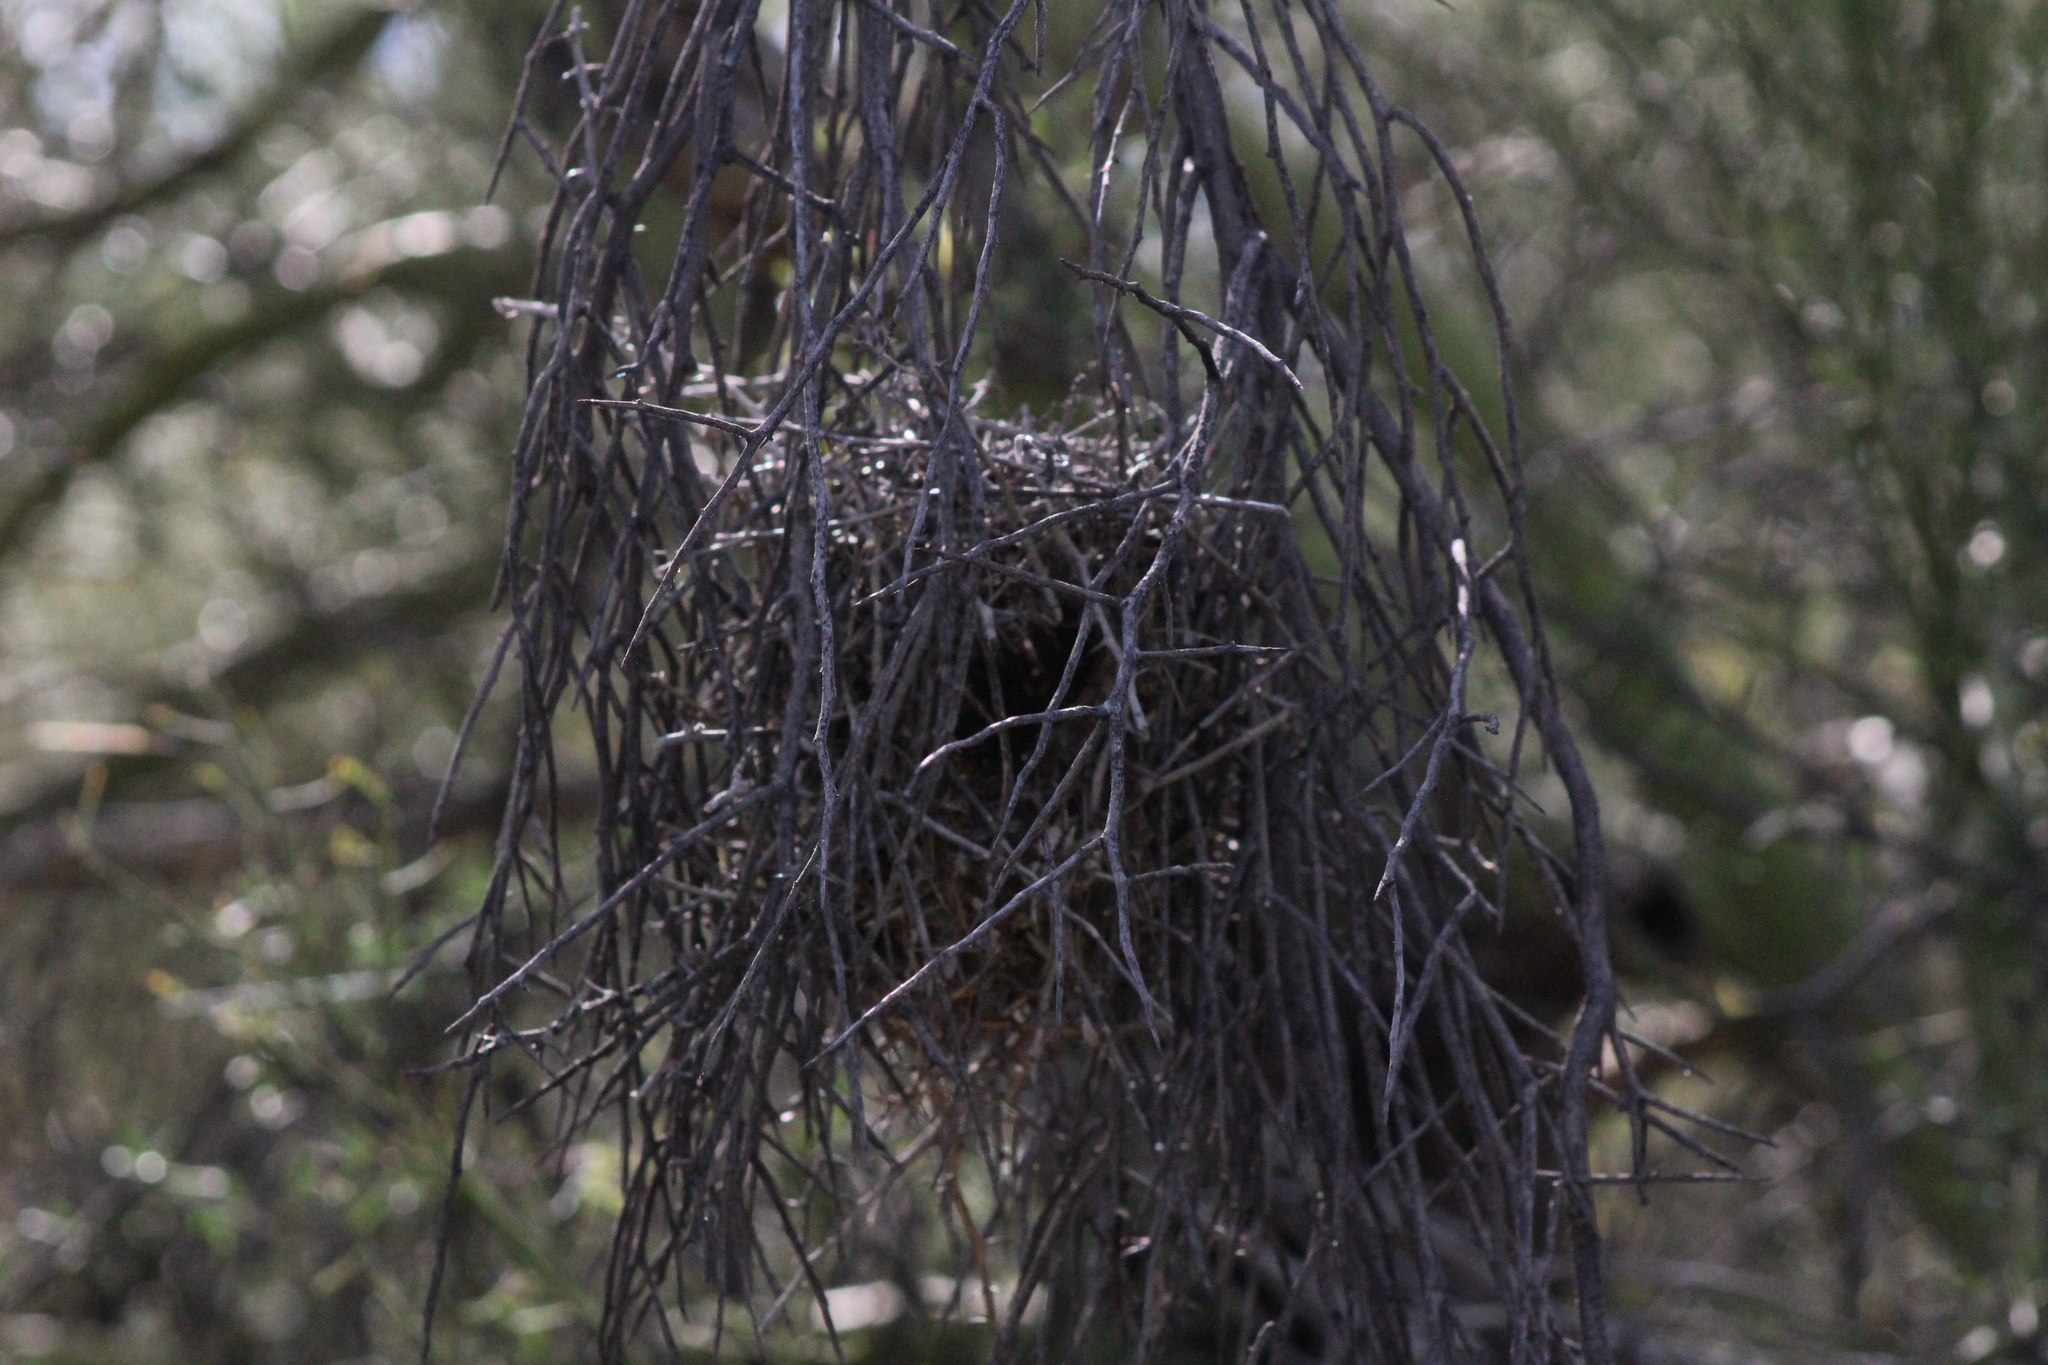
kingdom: Animalia
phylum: Chordata
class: Aves
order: Passeriformes
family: Remizidae
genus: Auriparus
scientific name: Auriparus flaviceps
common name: Verdin
